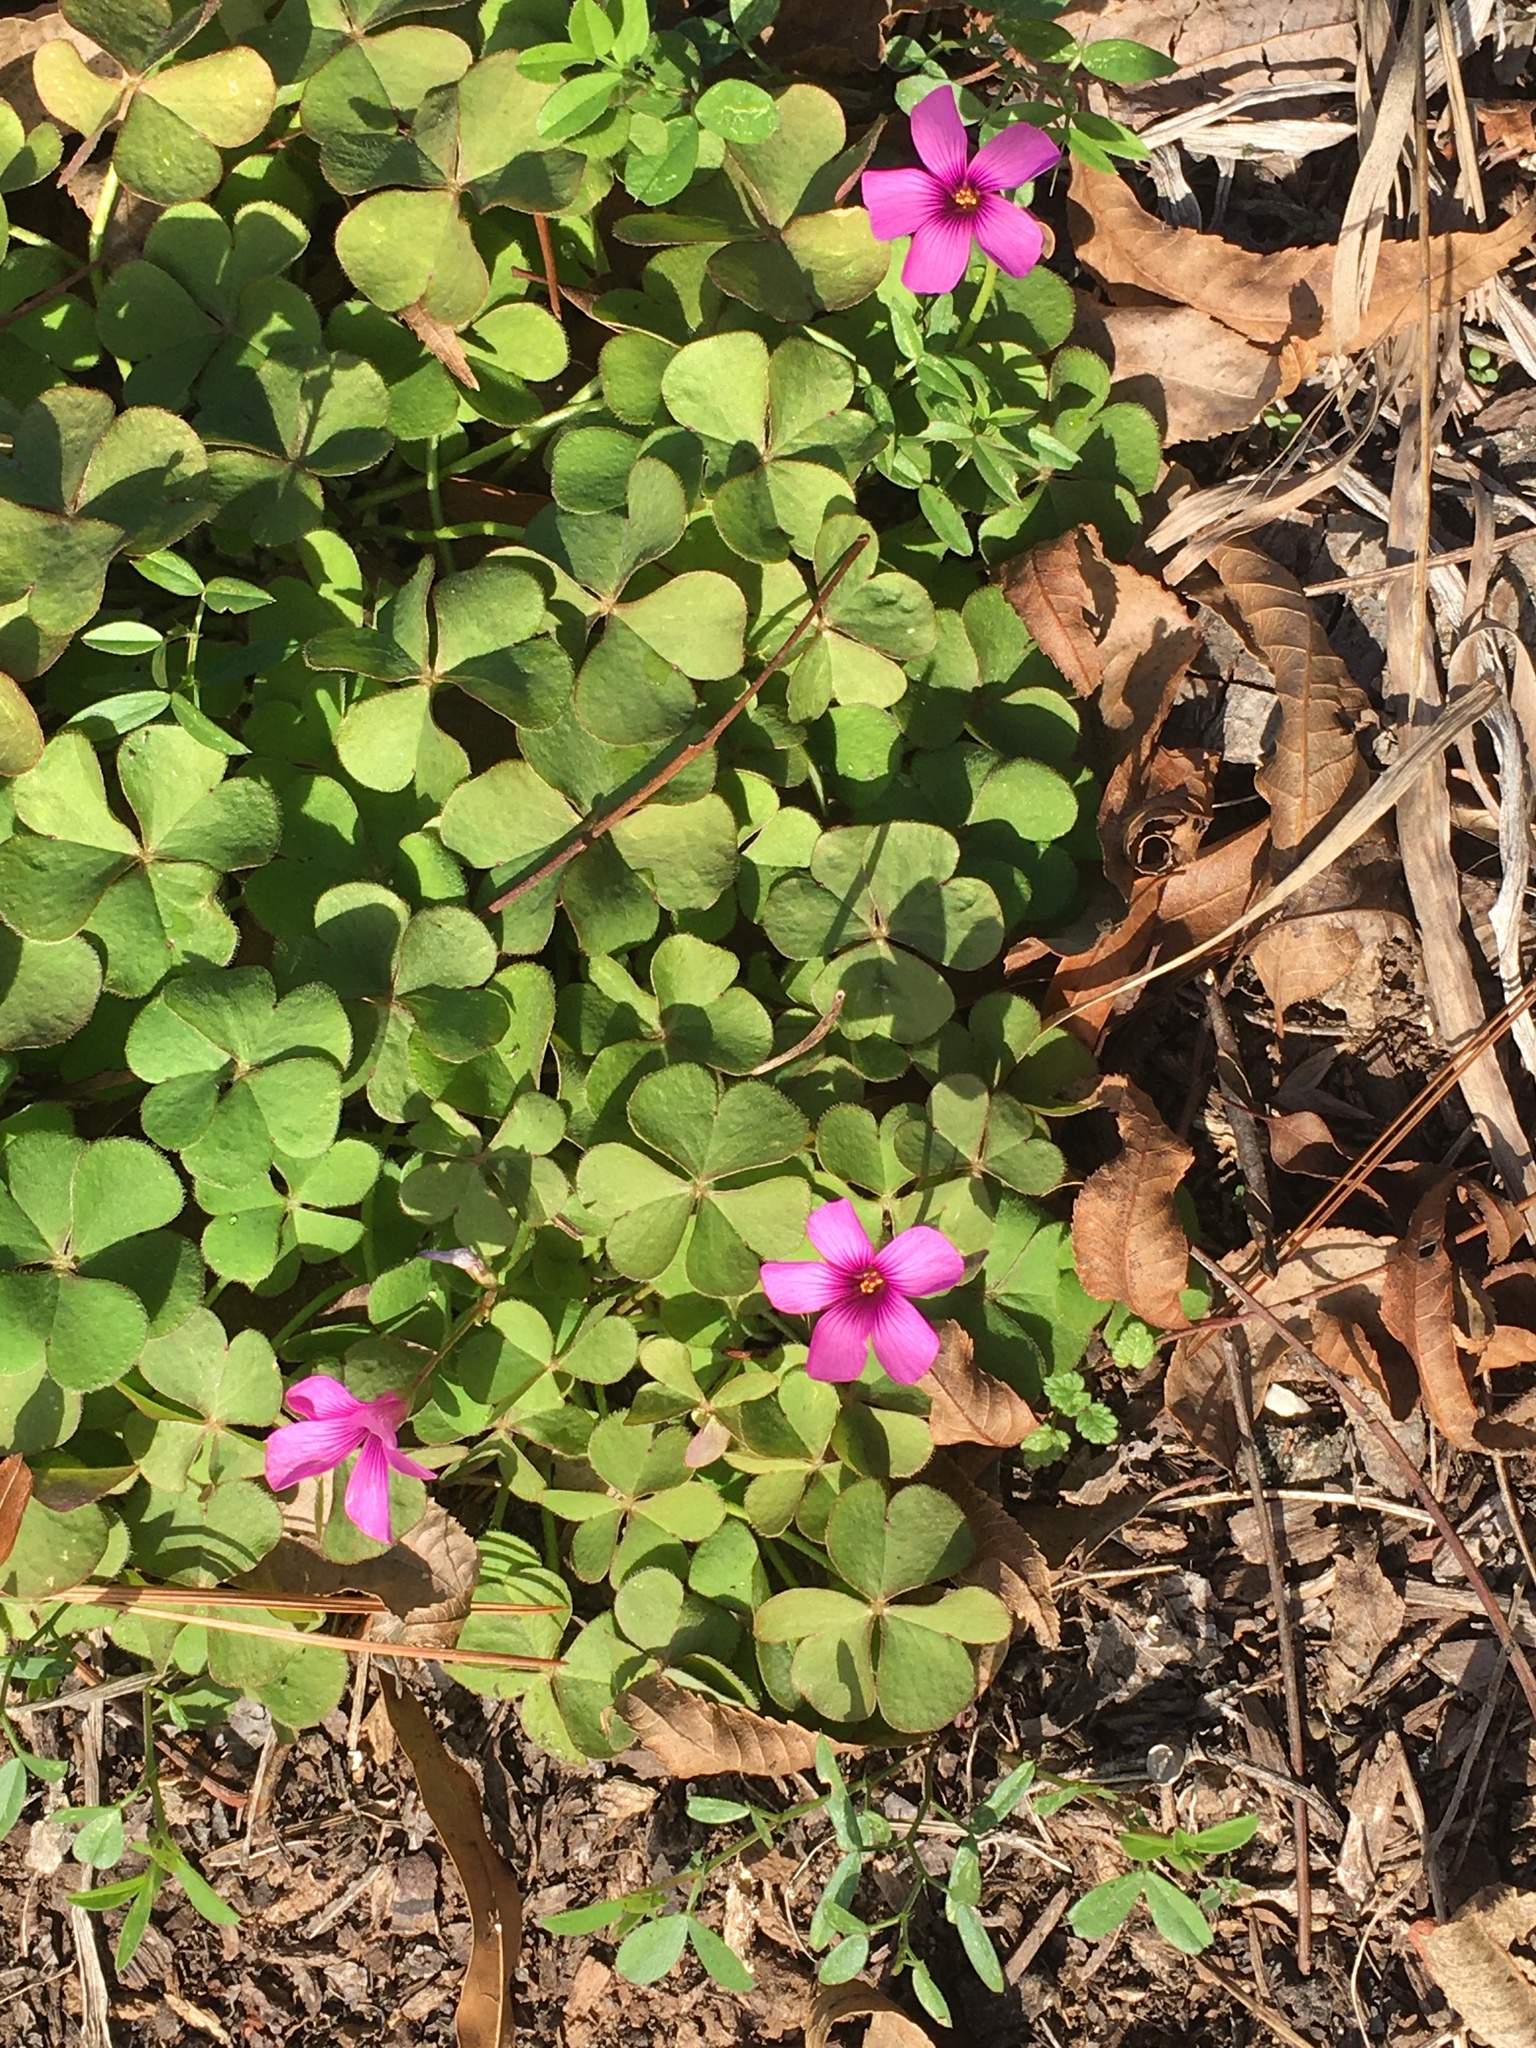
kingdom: Plantae
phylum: Tracheophyta
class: Magnoliopsida
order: Oxalidales
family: Oxalidaceae
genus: Oxalis
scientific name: Oxalis articulata
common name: Pink-sorrel
